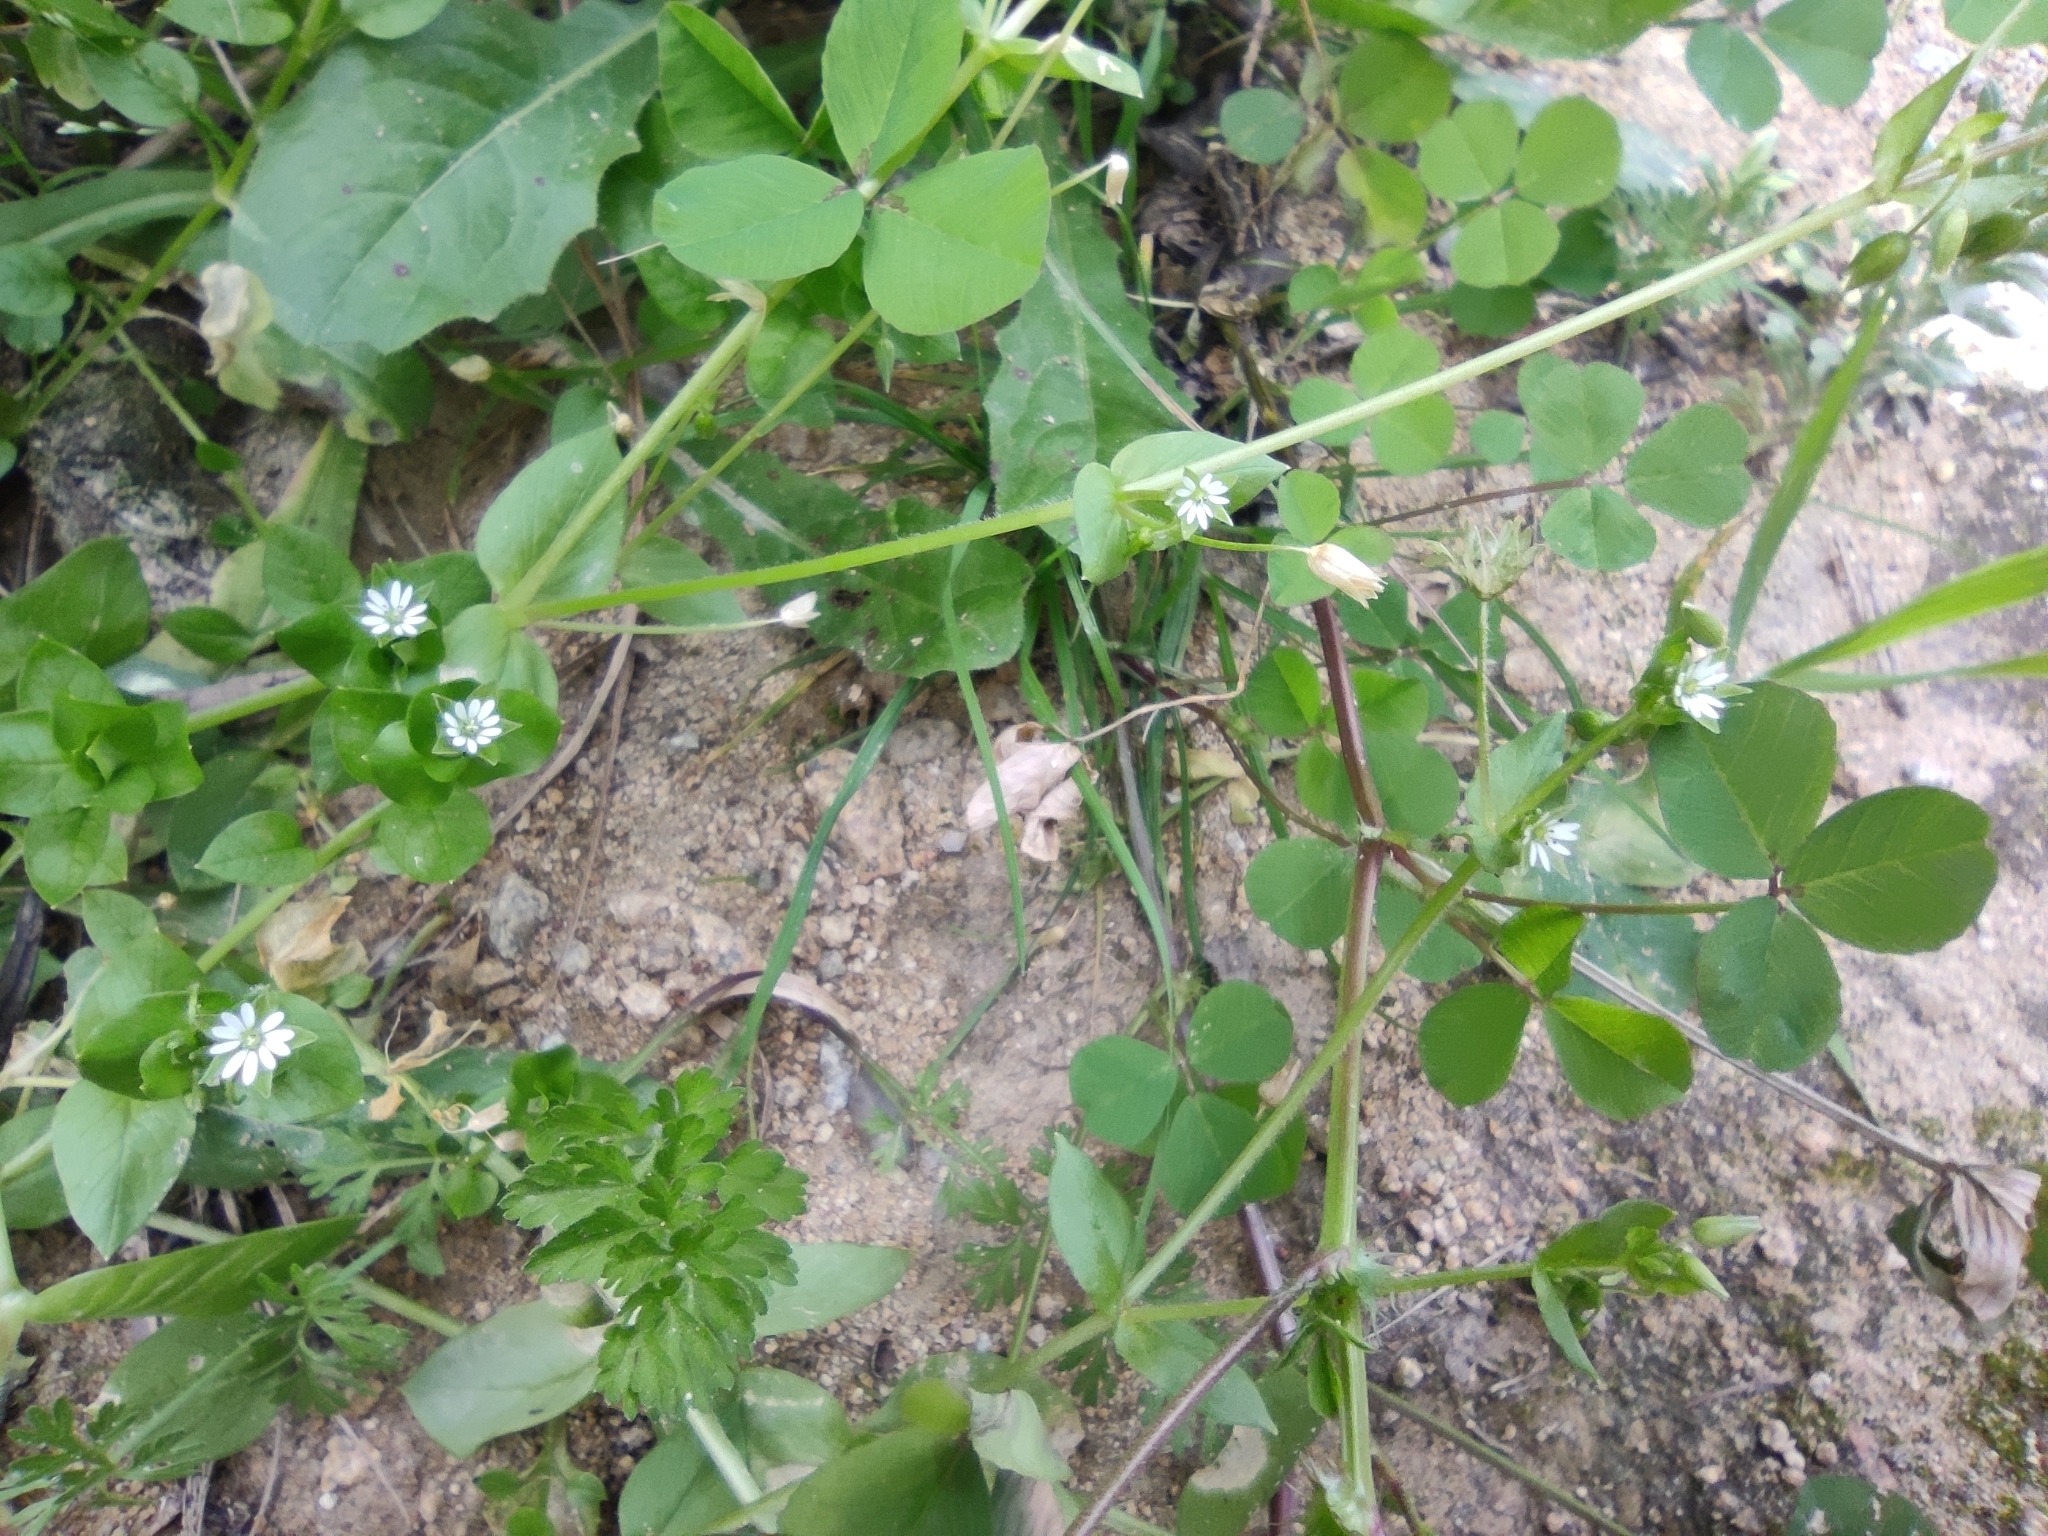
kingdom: Plantae
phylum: Tracheophyta
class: Magnoliopsida
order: Caryophyllales
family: Caryophyllaceae
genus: Stellaria
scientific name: Stellaria media
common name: Common chickweed
